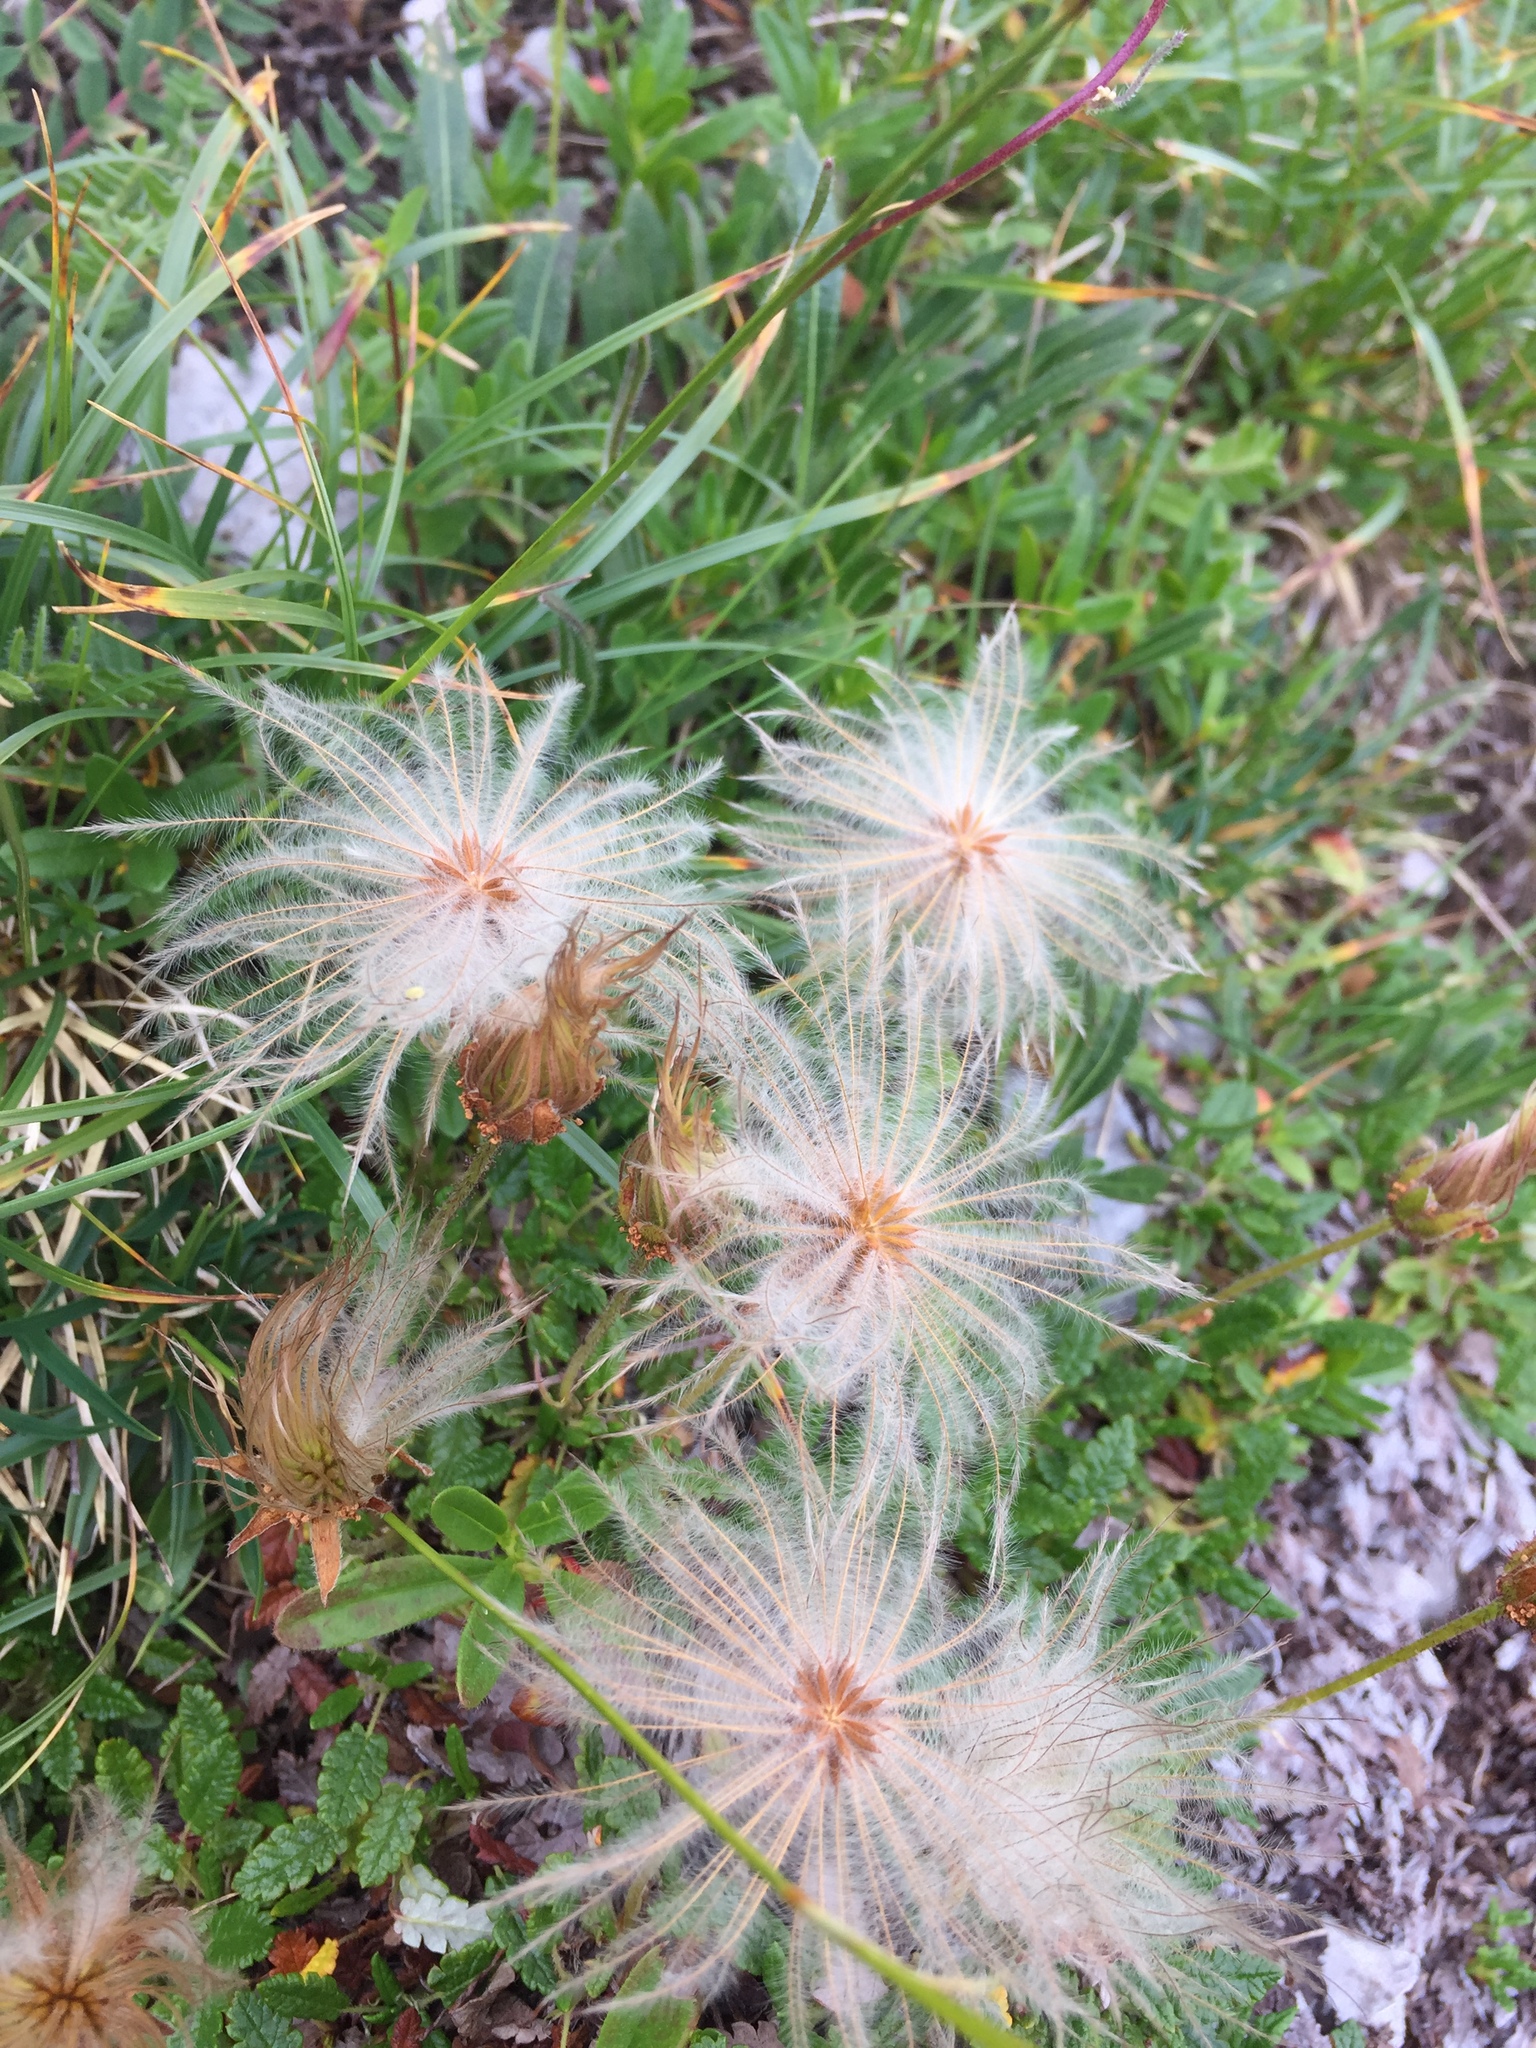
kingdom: Plantae
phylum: Tracheophyta
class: Magnoliopsida
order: Rosales
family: Rosaceae
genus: Dryas
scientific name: Dryas octopetala
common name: Eight-petal mountain-avens
